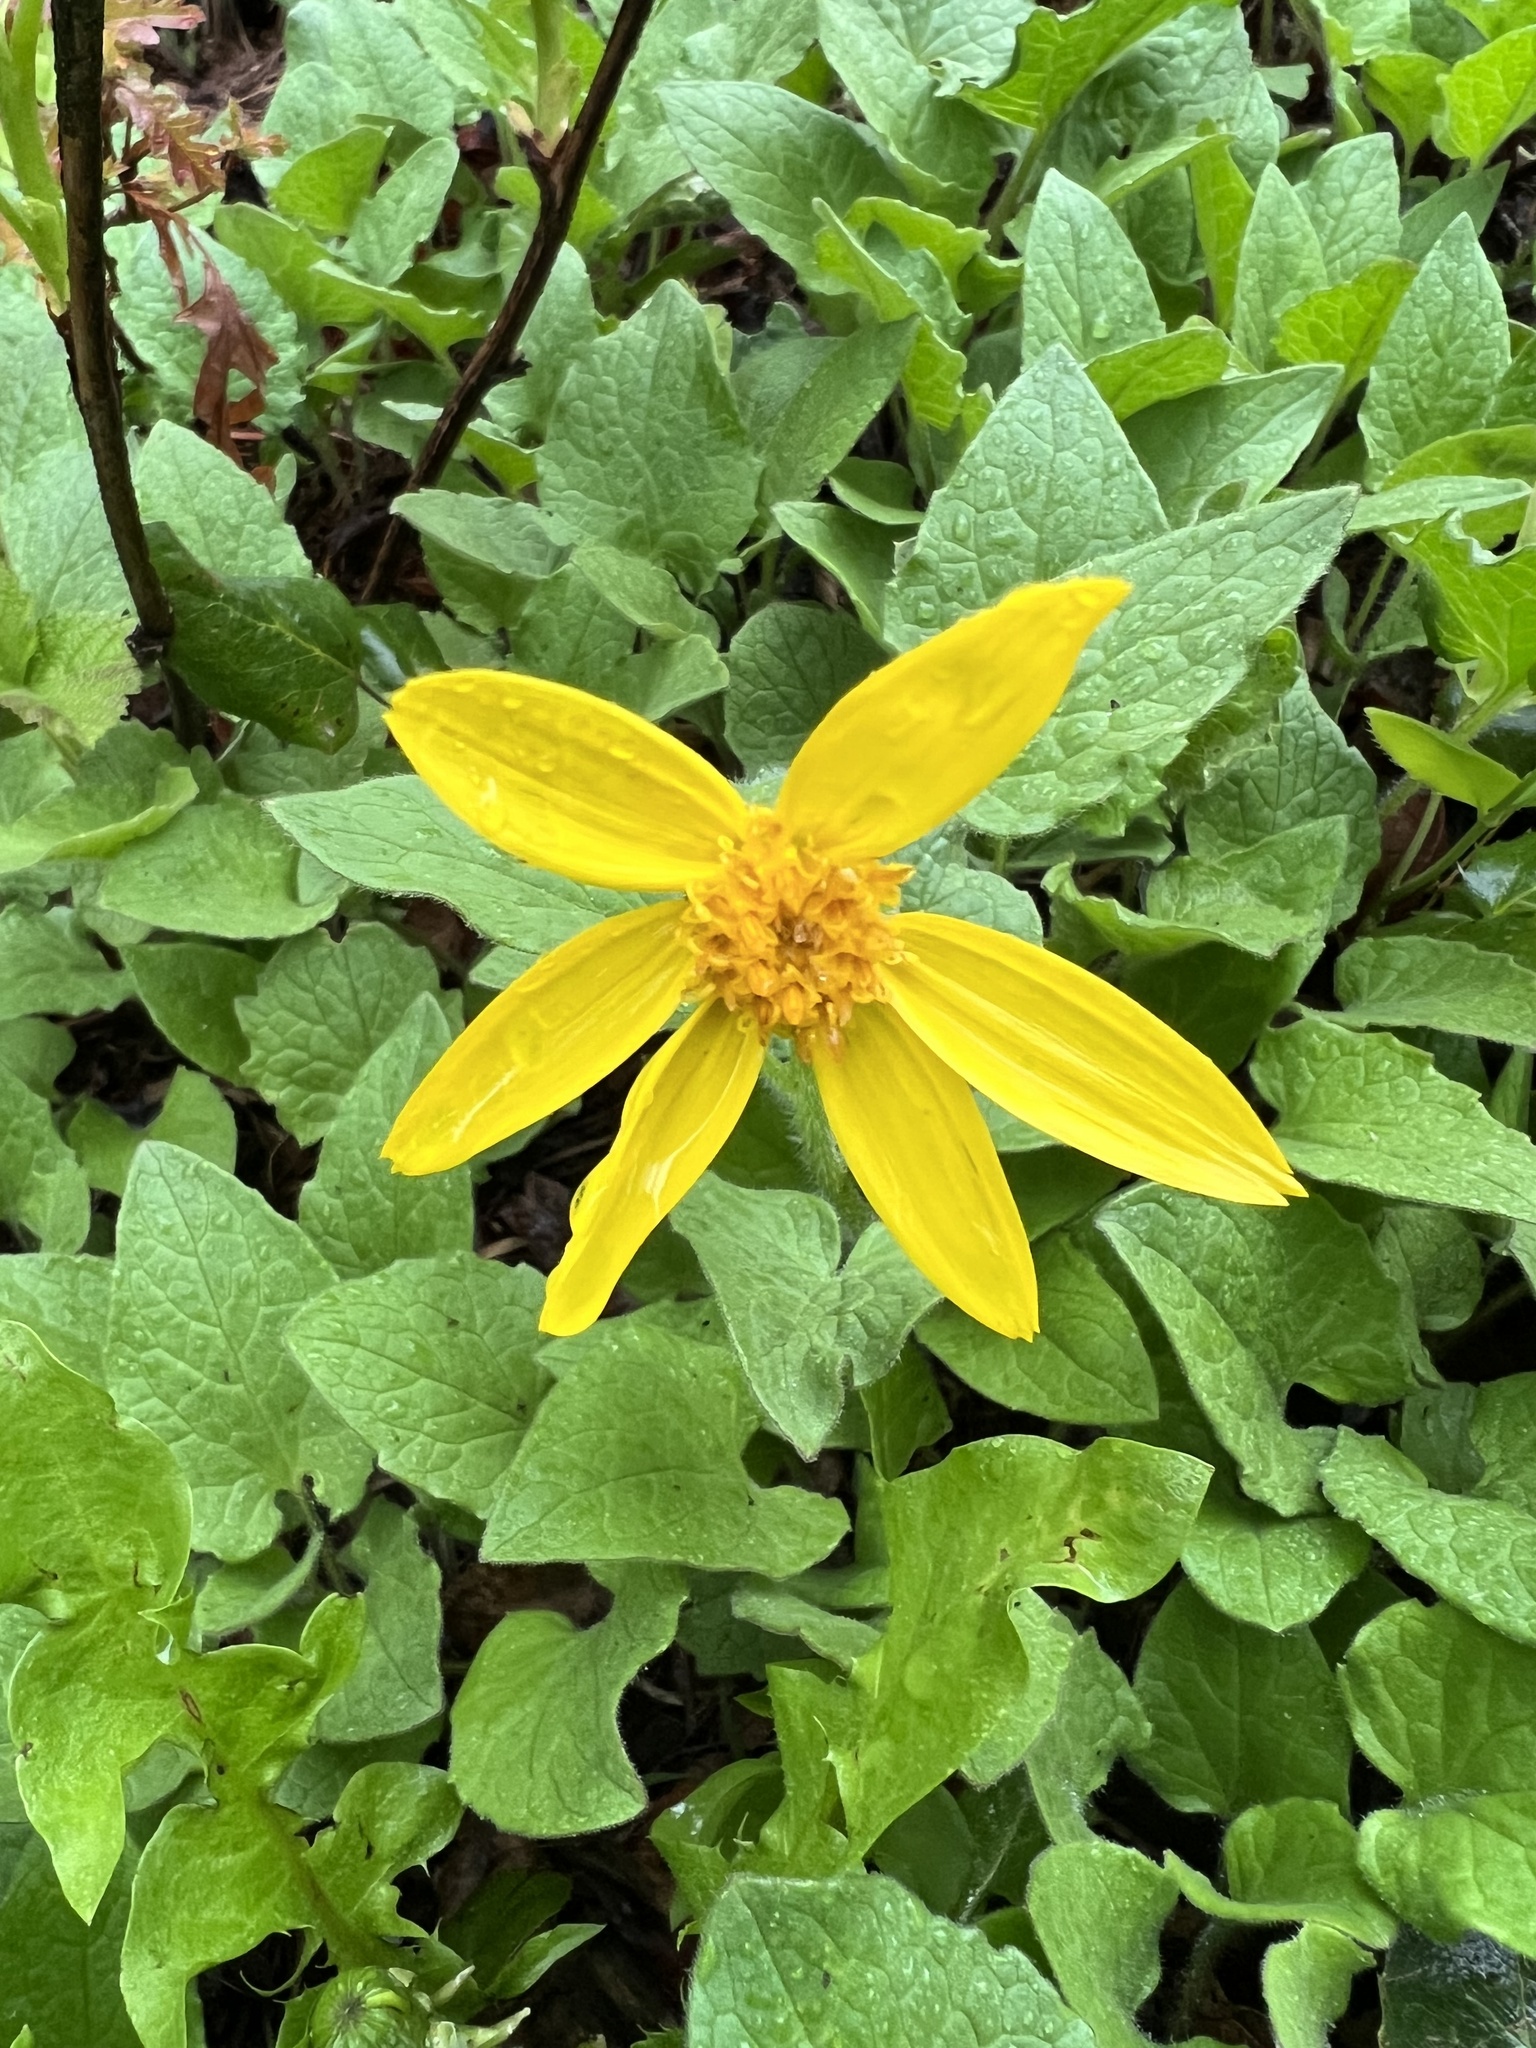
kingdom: Plantae
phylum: Tracheophyta
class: Magnoliopsida
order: Asterales
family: Asteraceae
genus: Arnica
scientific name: Arnica cordifolia
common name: Heart-leaf arnica
